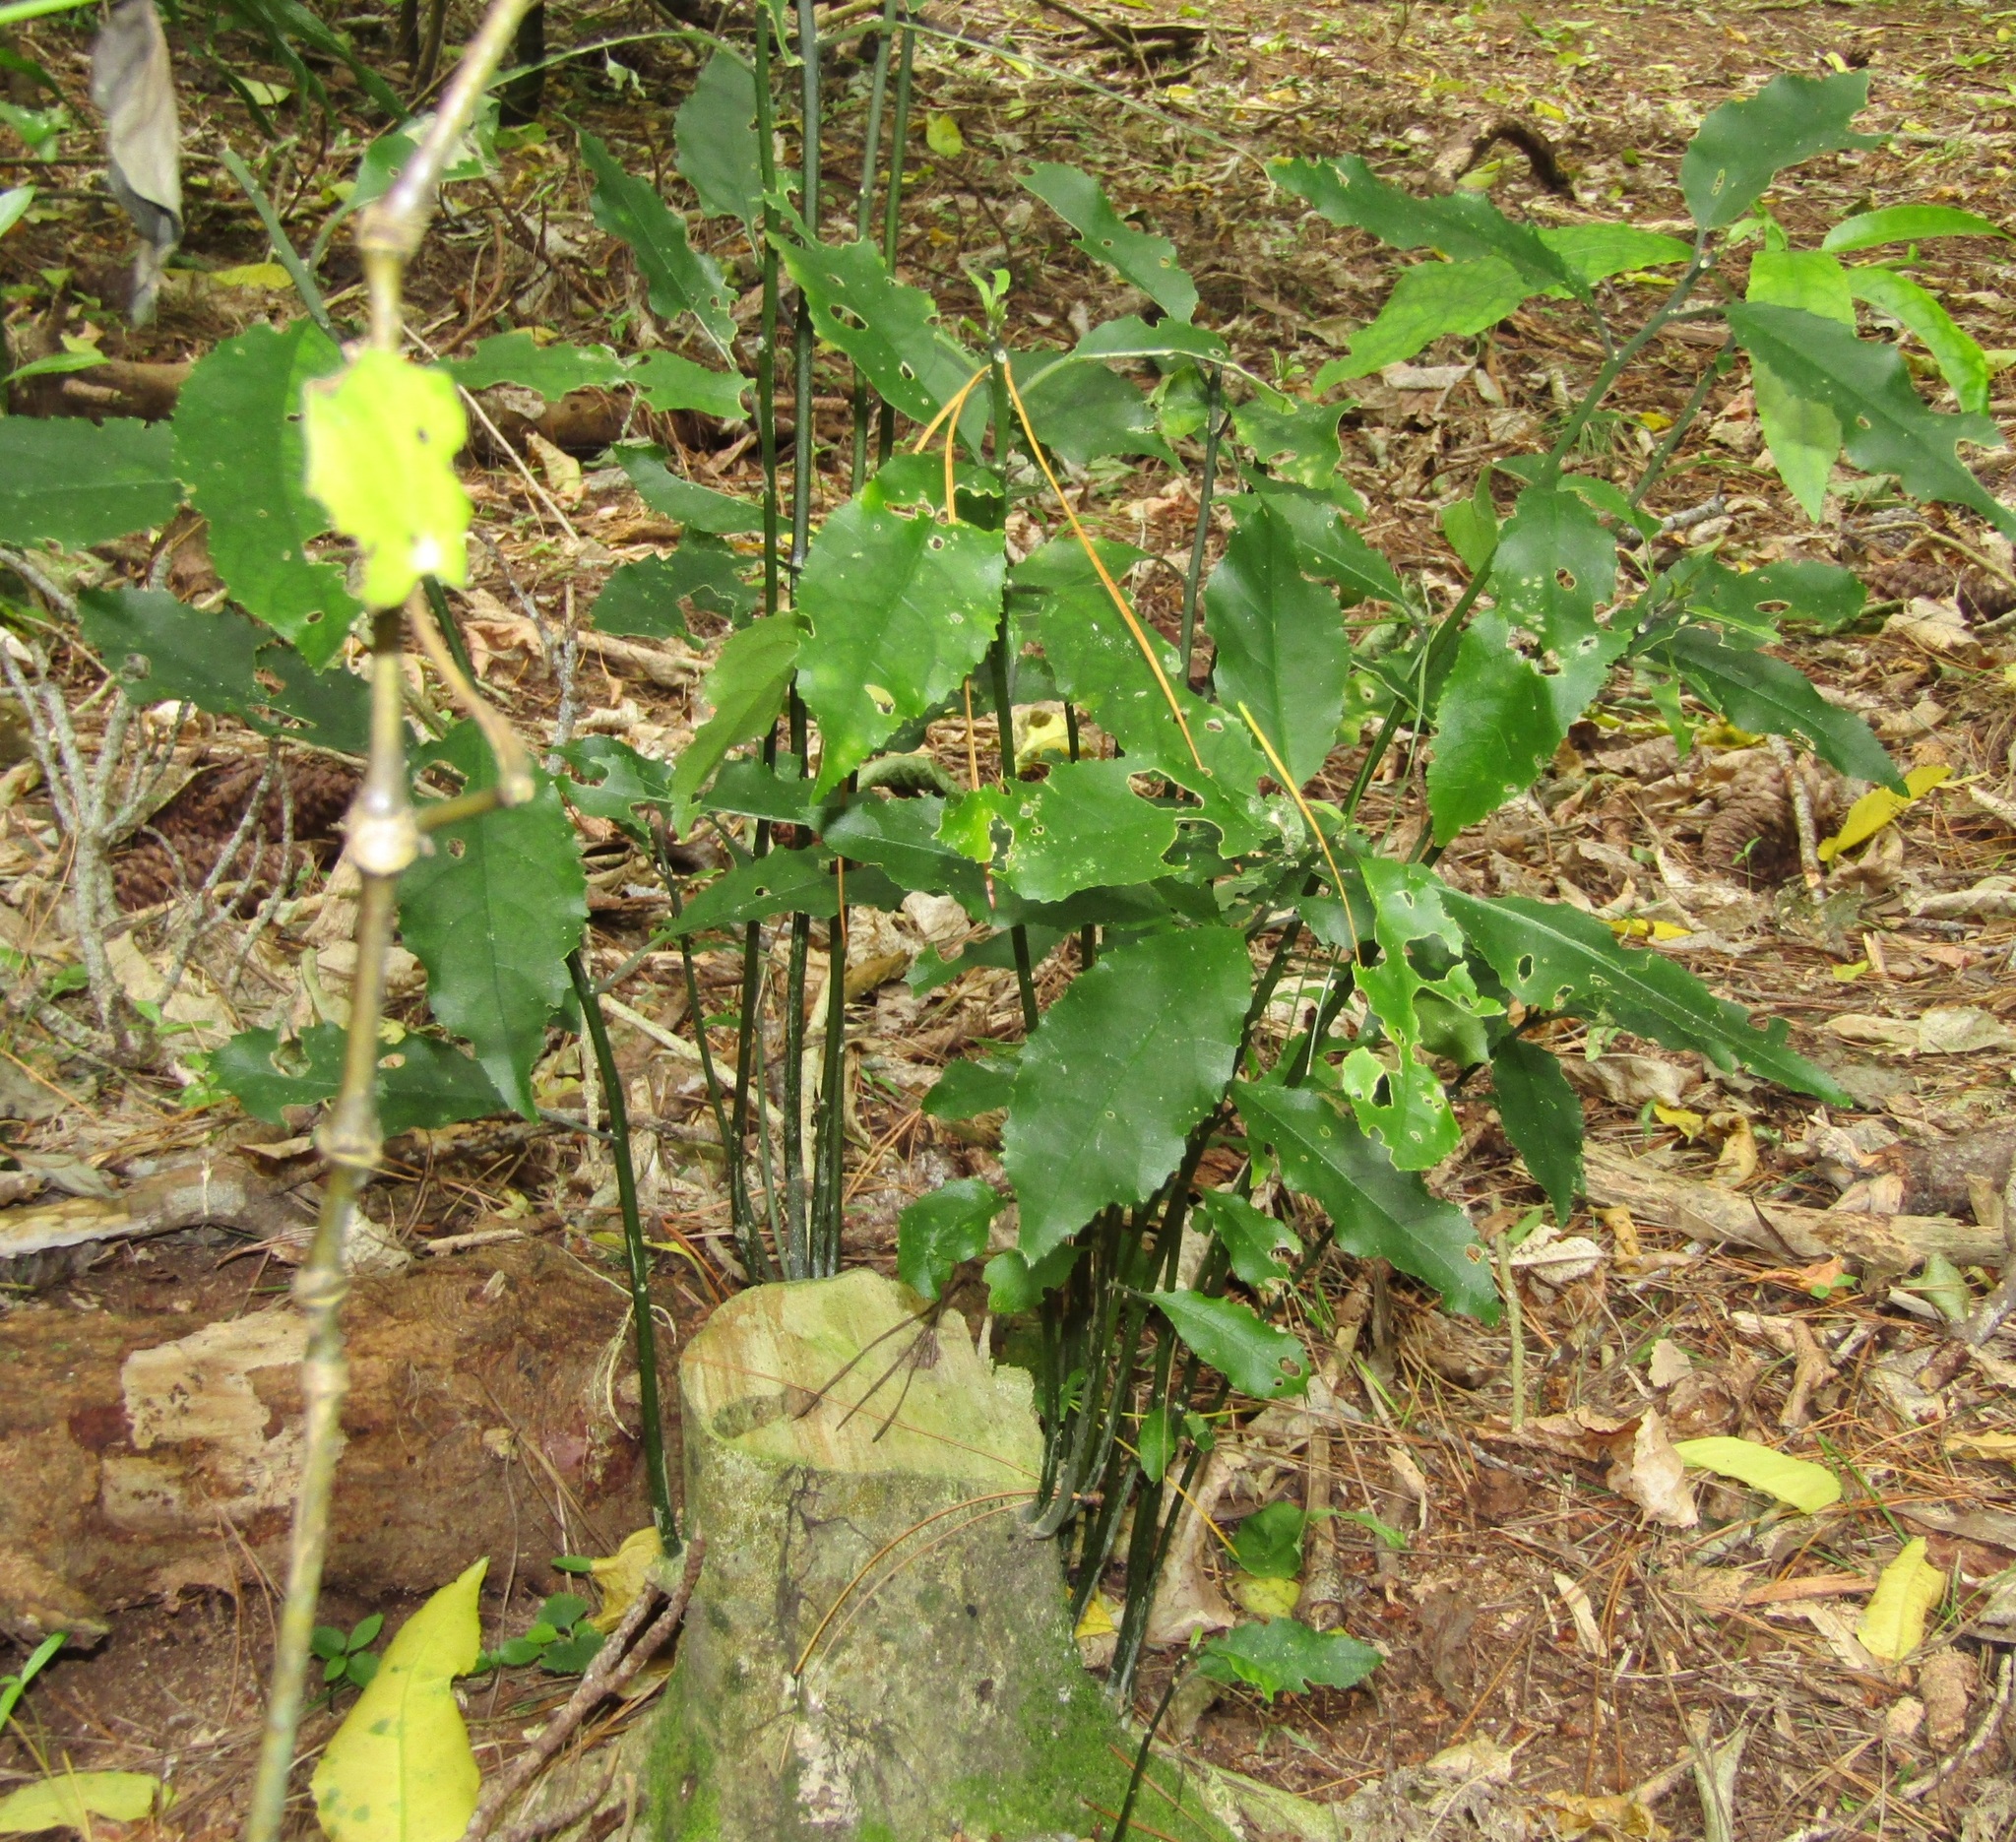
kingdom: Plantae
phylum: Tracheophyta
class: Magnoliopsida
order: Malpighiales
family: Violaceae
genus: Melicytus
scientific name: Melicytus ramiflorus
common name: Mahoe
